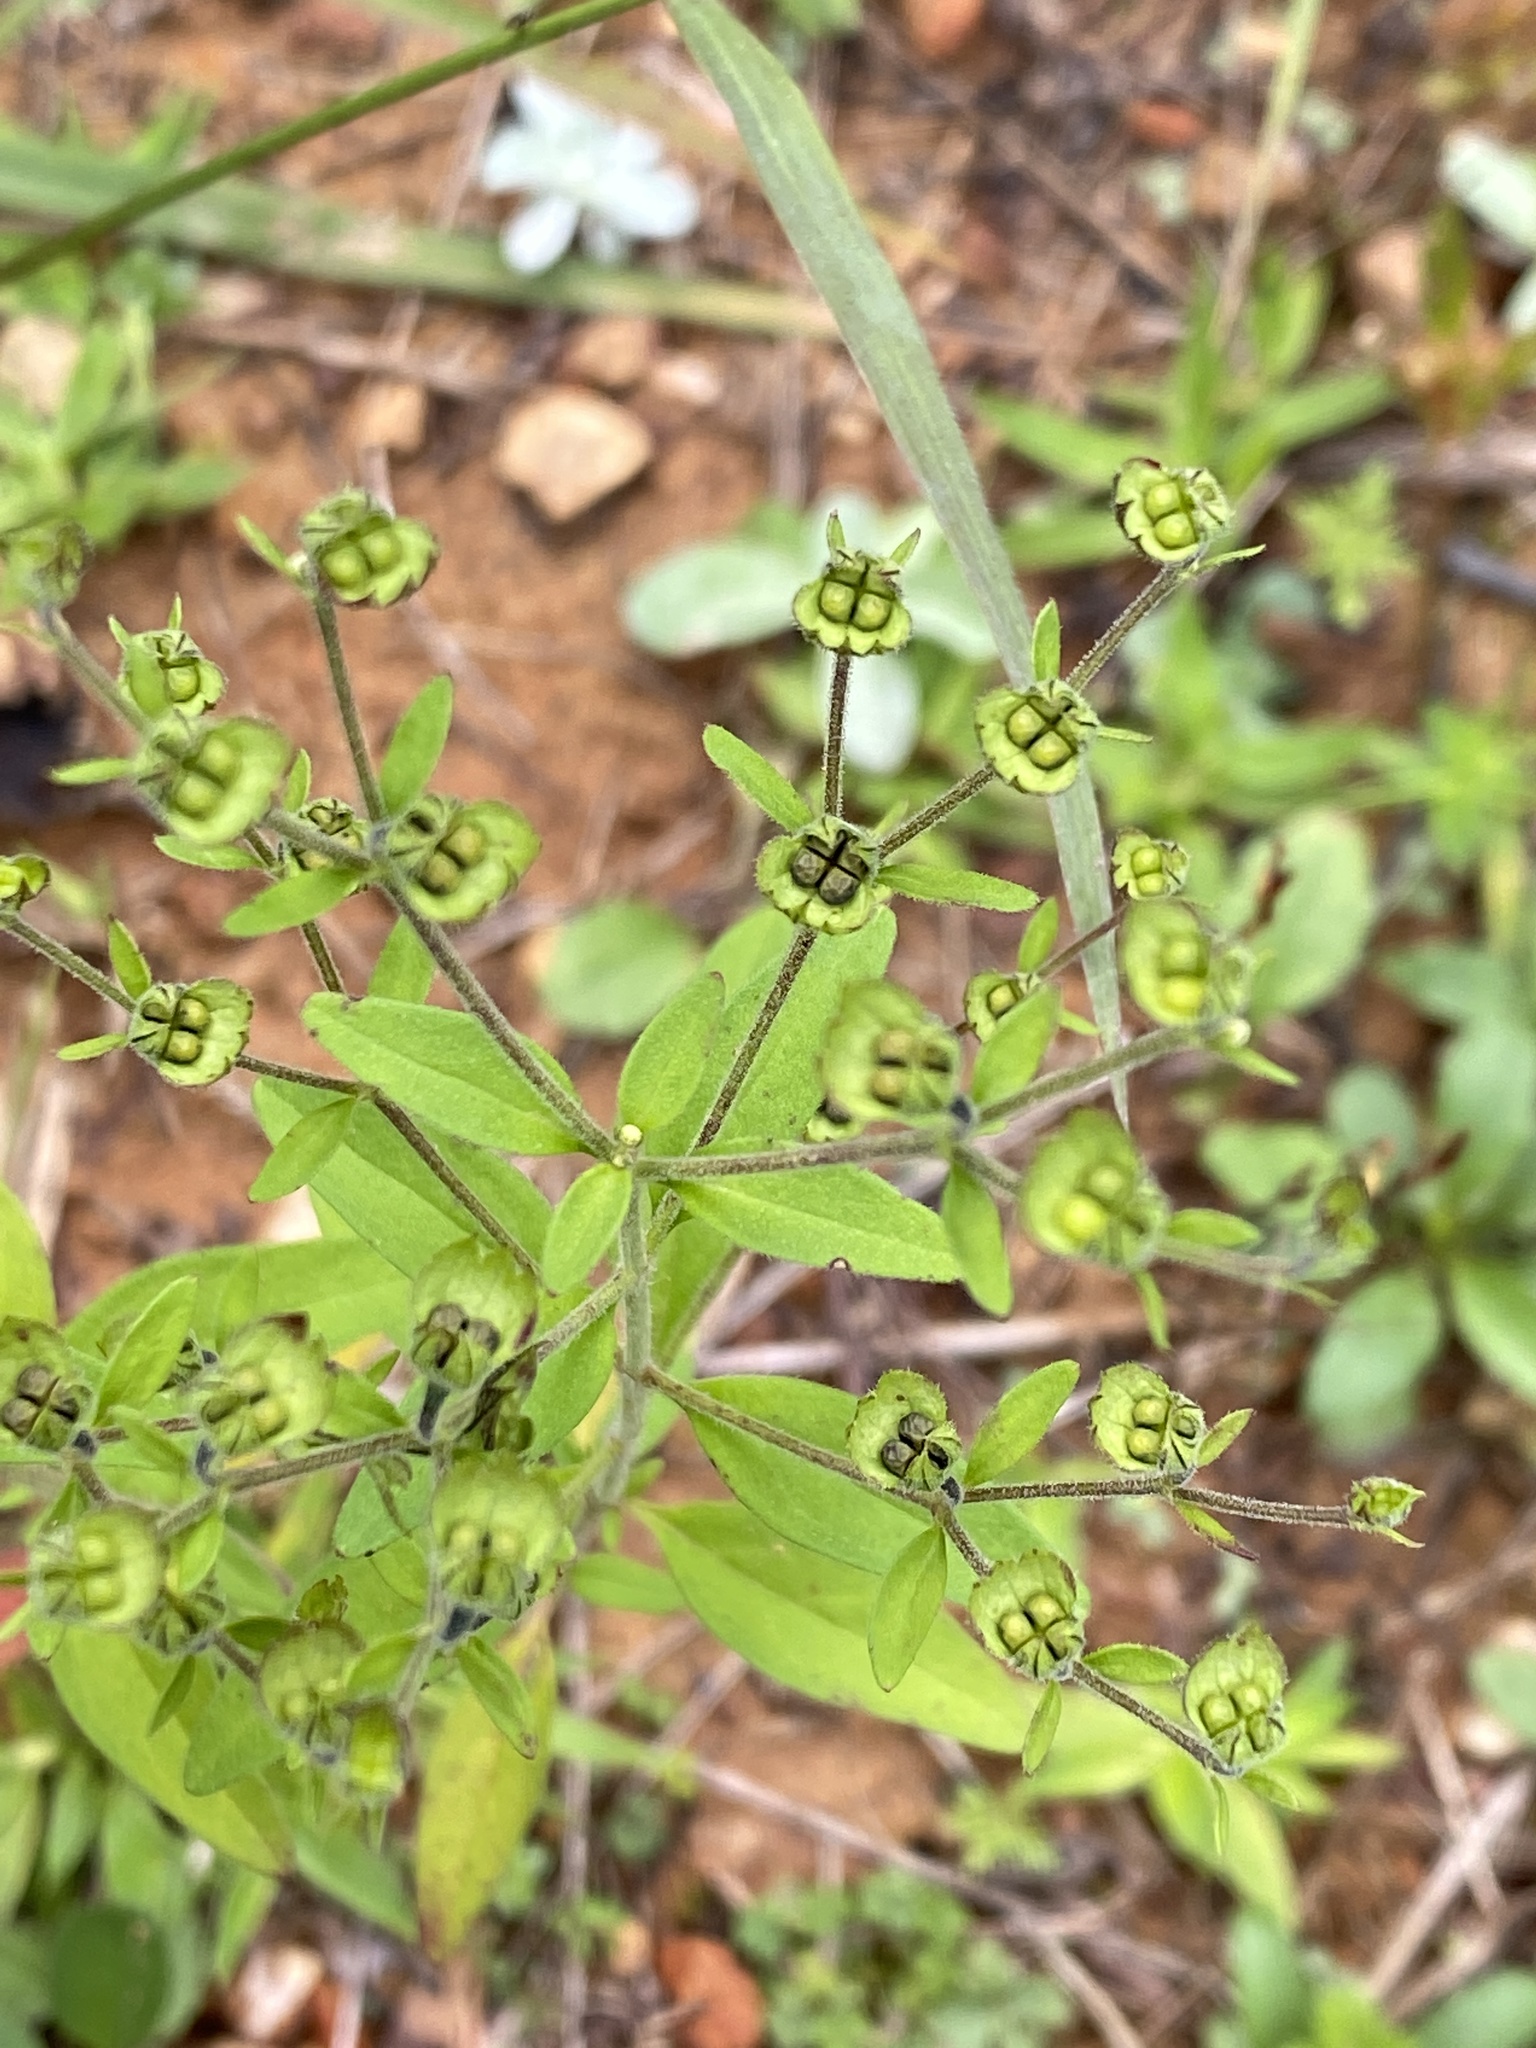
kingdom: Plantae
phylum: Tracheophyta
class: Magnoliopsida
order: Lamiales
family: Lamiaceae
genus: Trichostema
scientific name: Trichostema dichotomum
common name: Bastard pennyroyal
